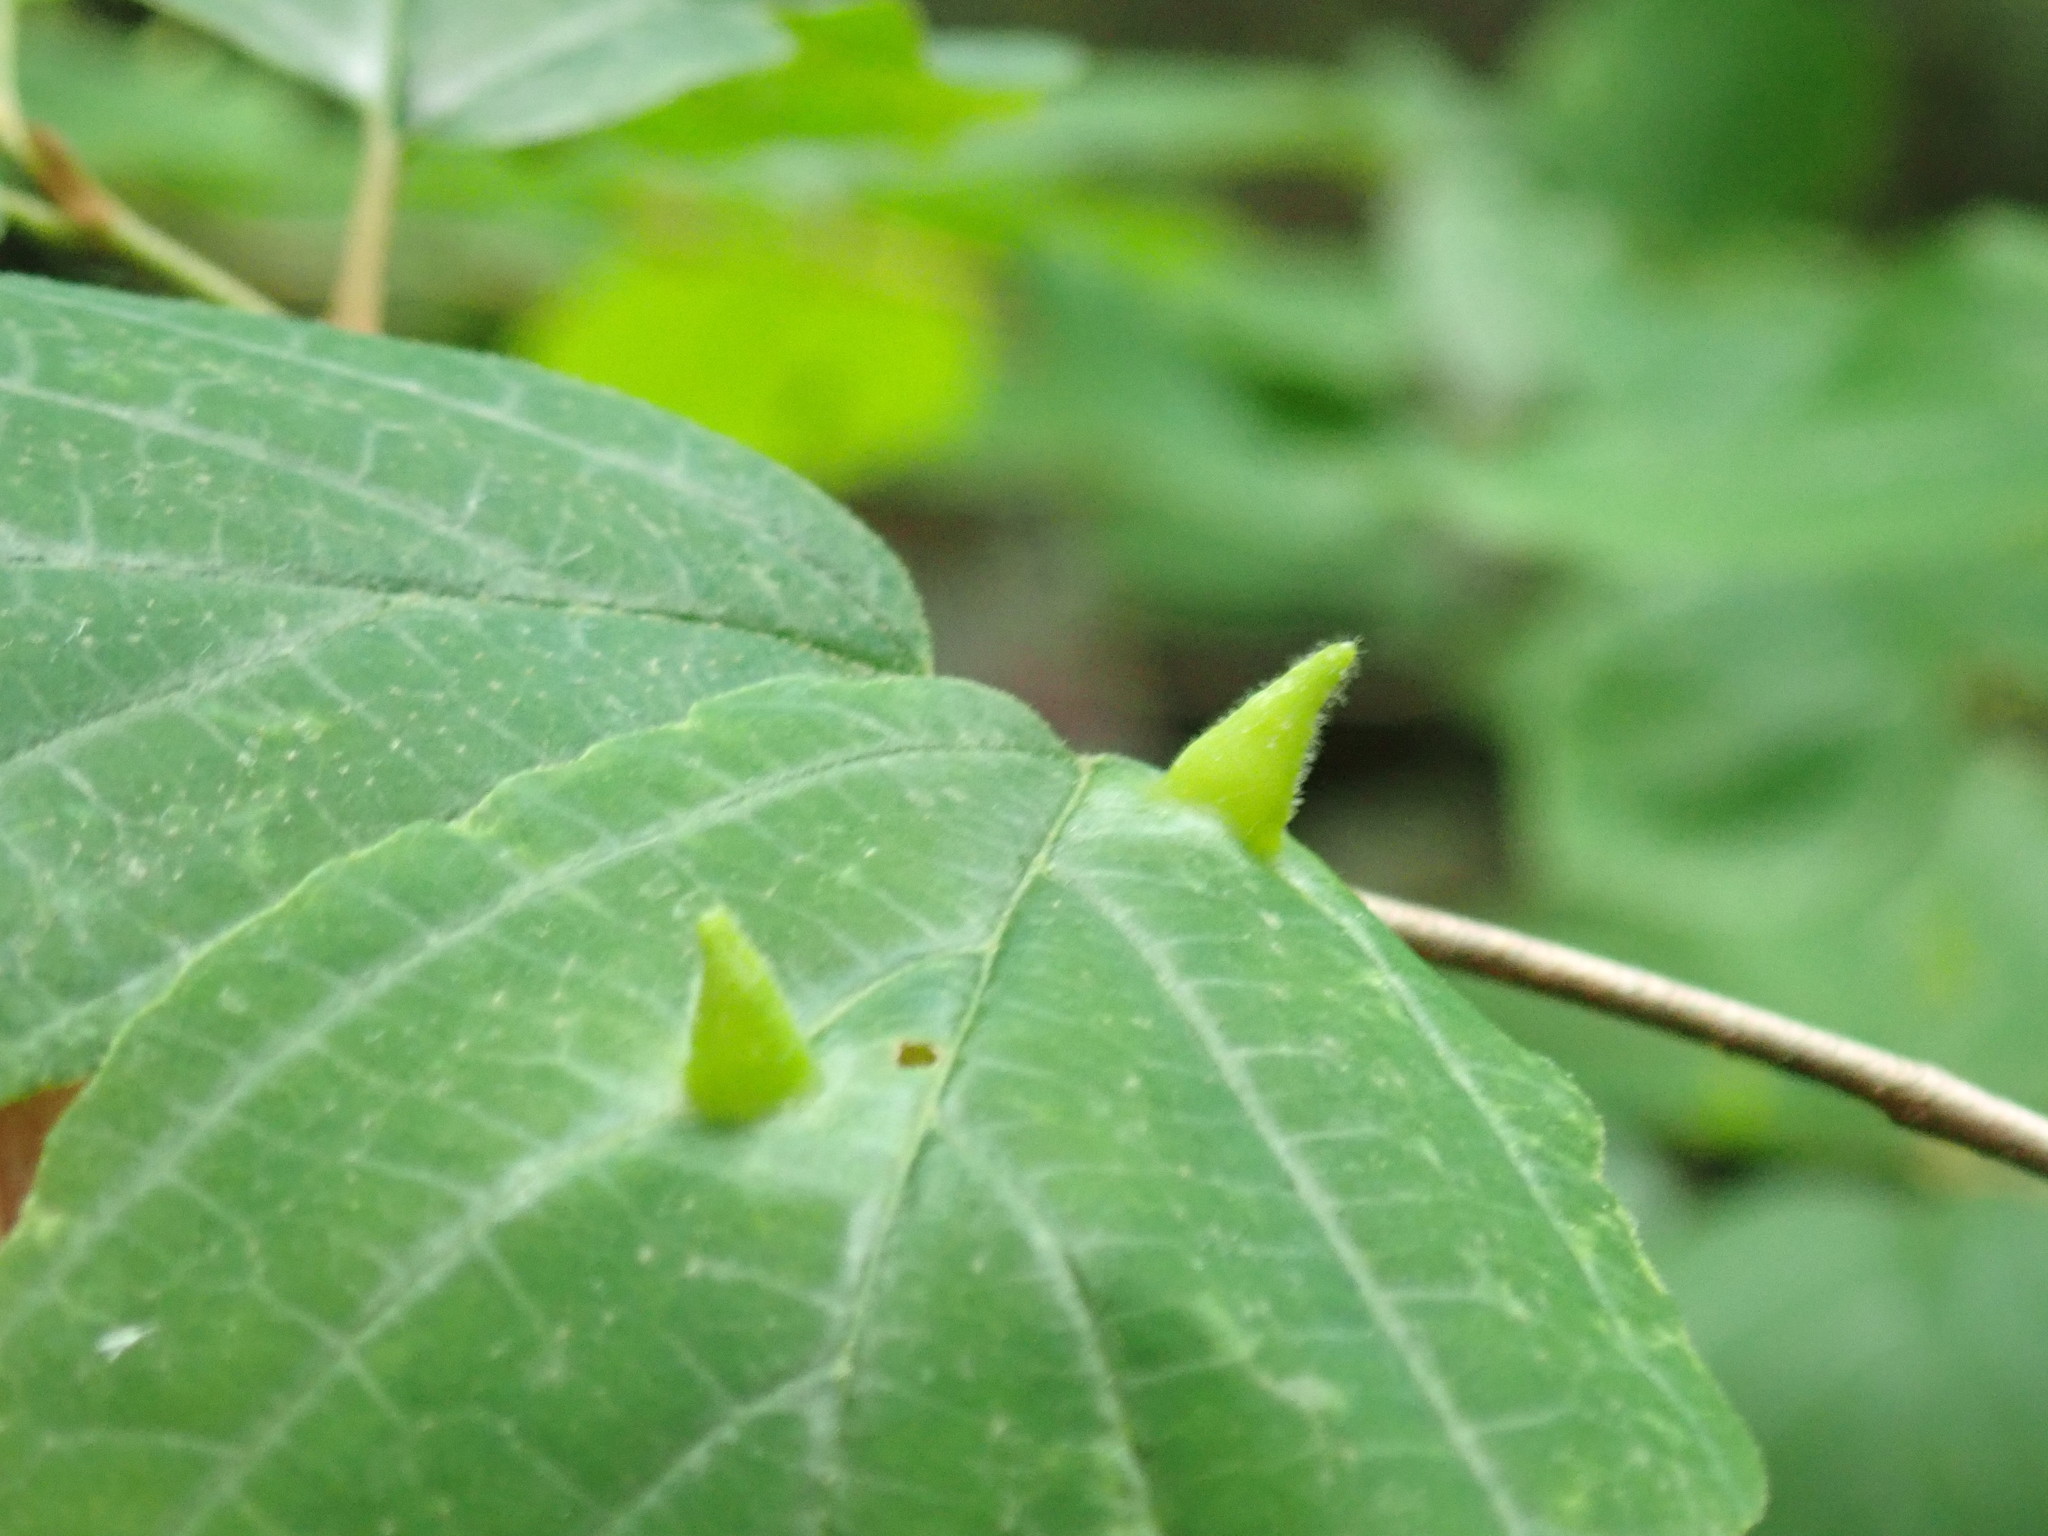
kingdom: Animalia
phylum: Arthropoda
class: Insecta
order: Hemiptera
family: Aphididae
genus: Hormaphis
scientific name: Hormaphis hamamelidis
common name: Witch-hazel cone gall aphid
